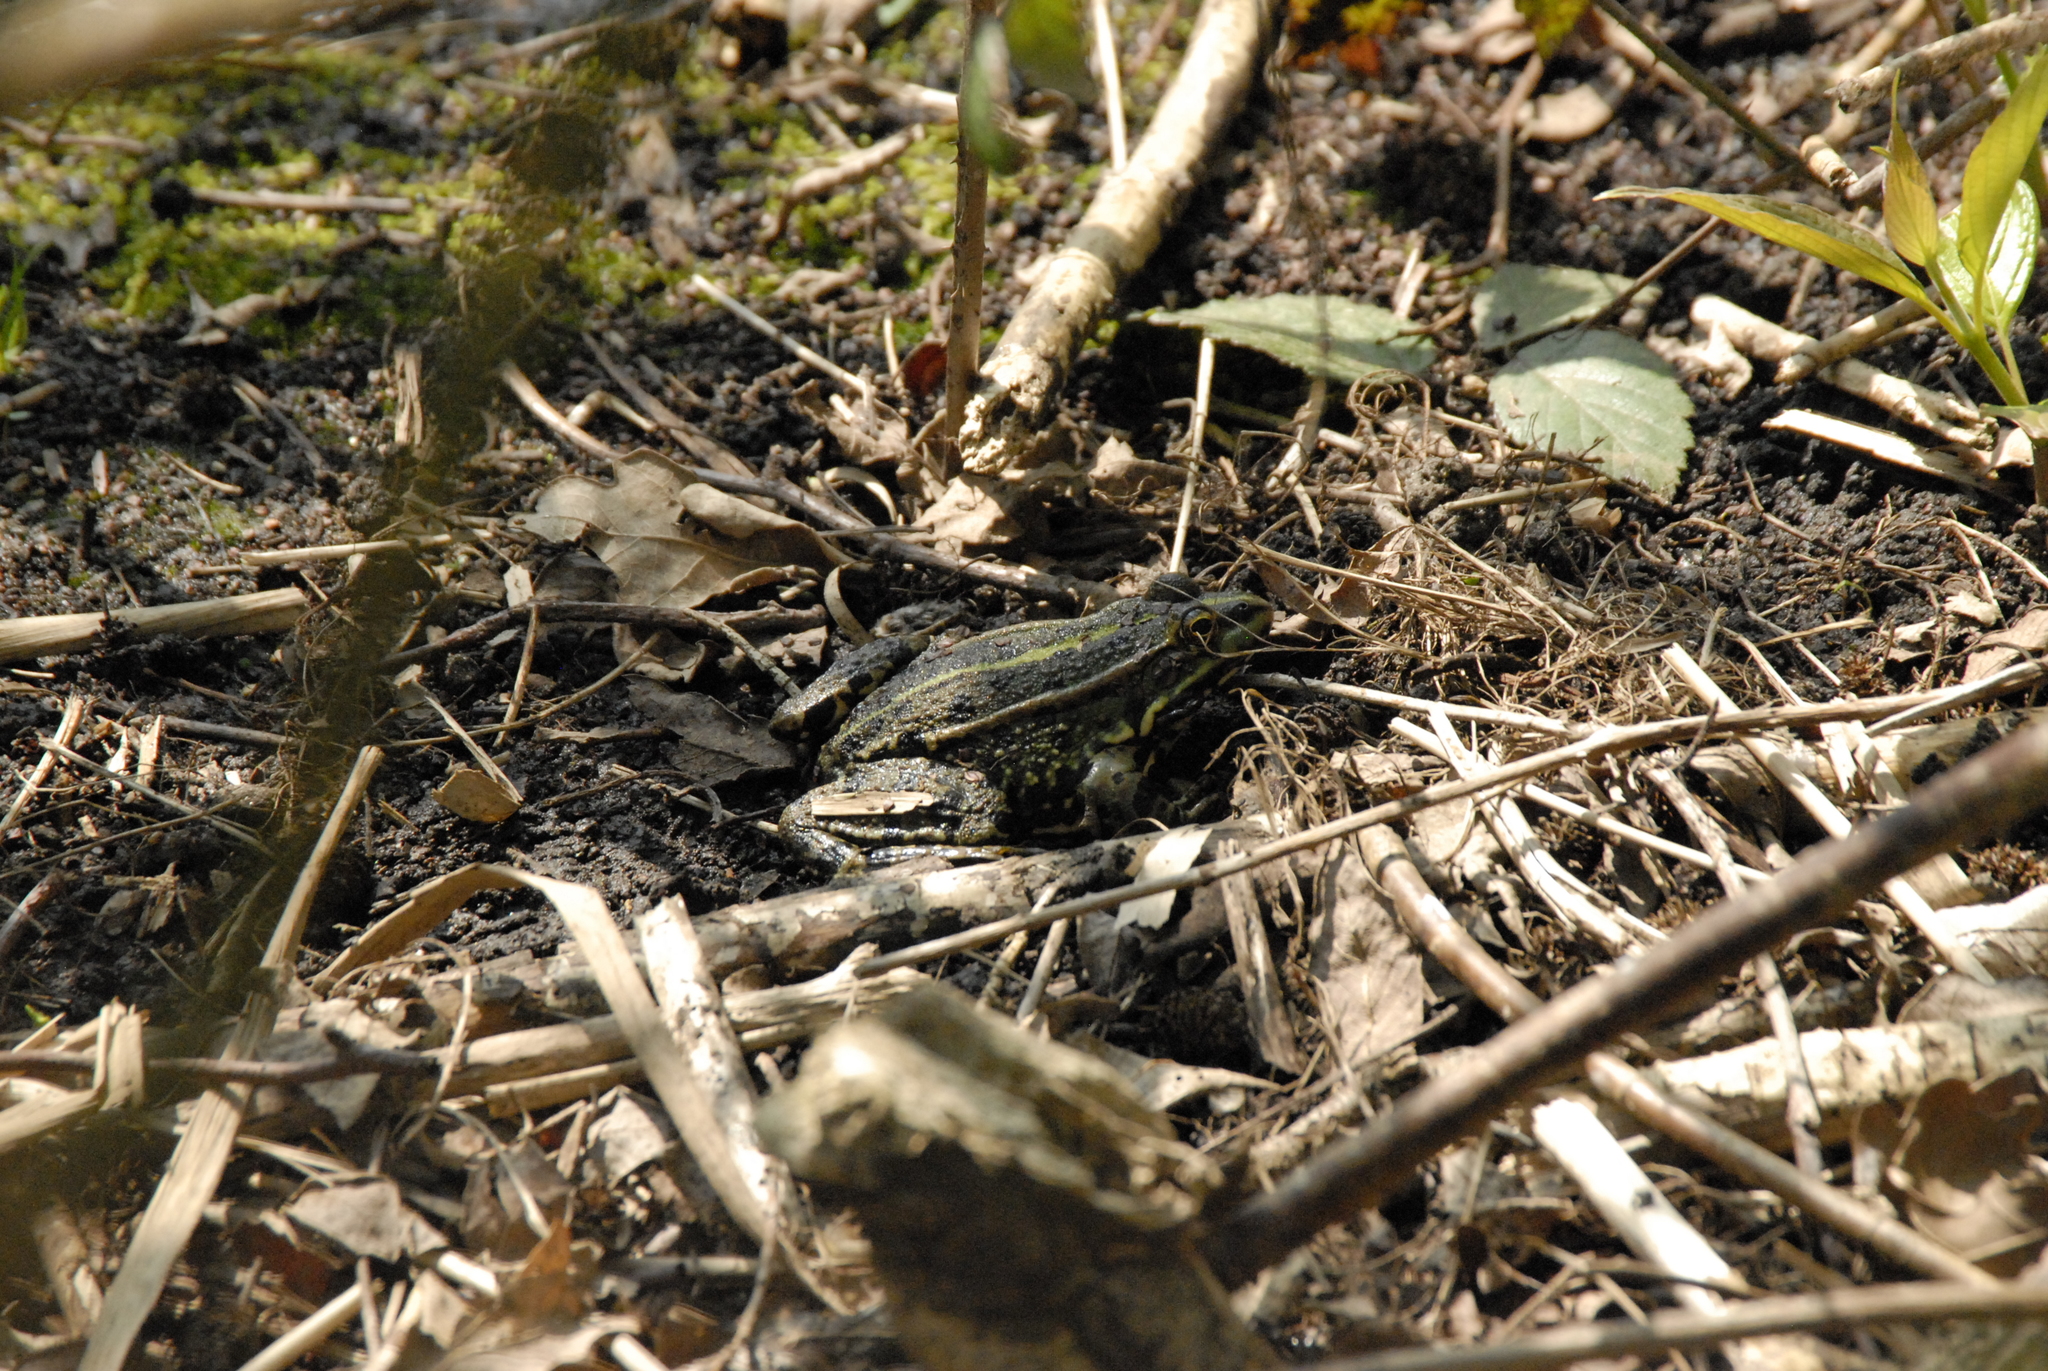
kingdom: Animalia
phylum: Chordata
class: Amphibia
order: Anura
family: Ranidae
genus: Pelophylax
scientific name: Pelophylax
